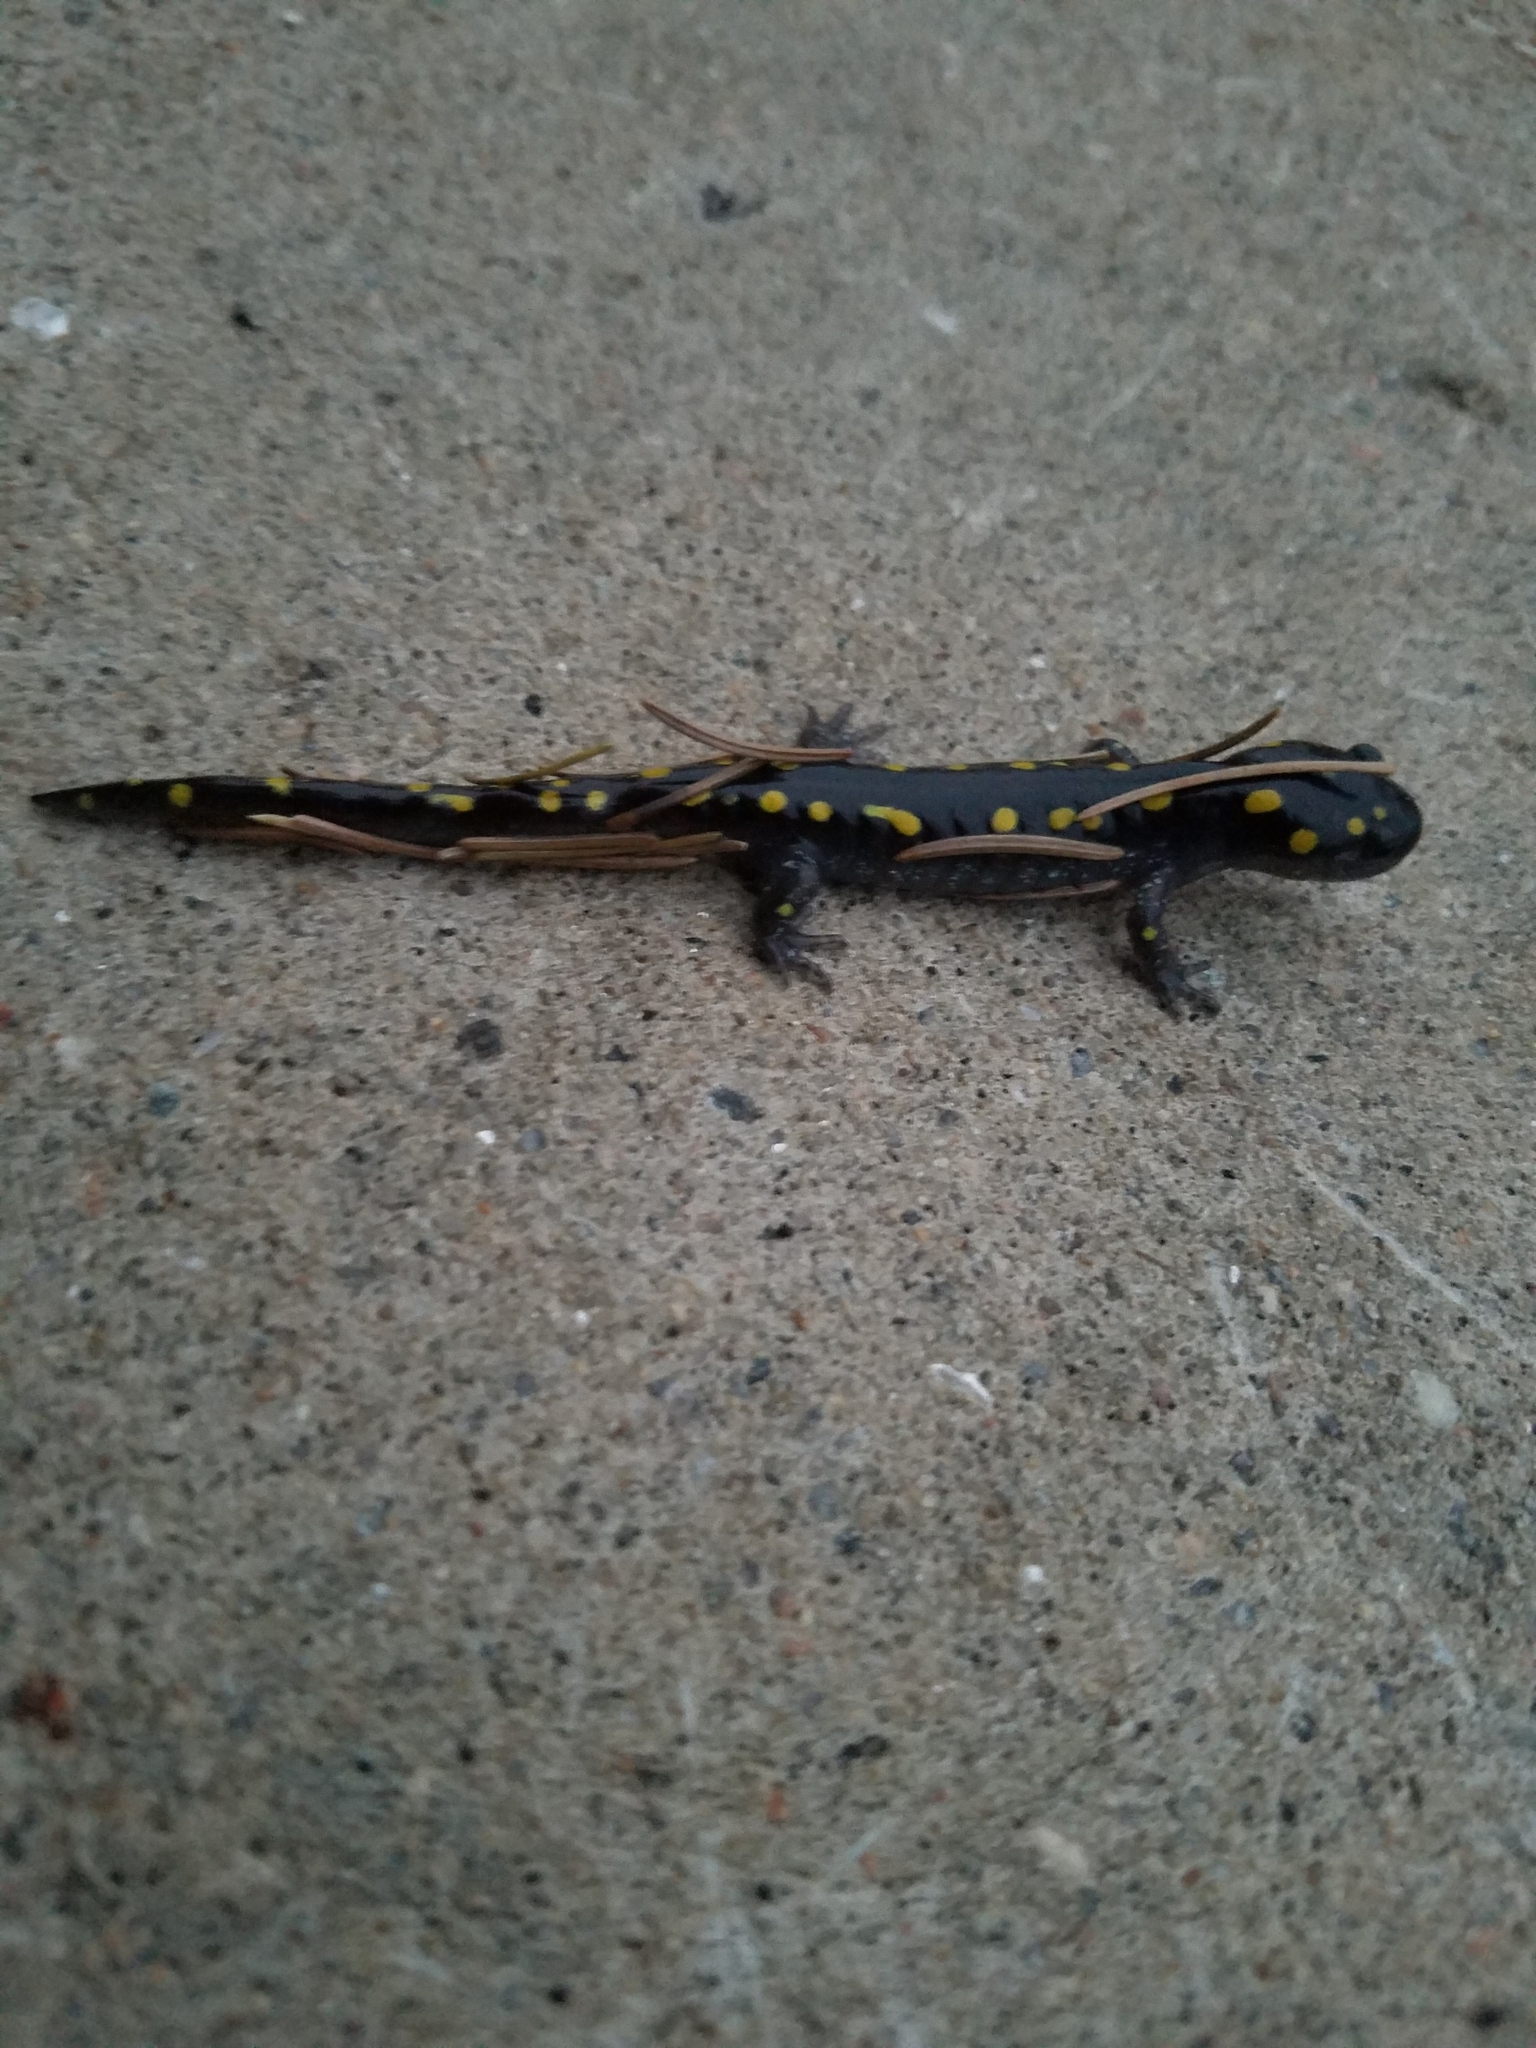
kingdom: Animalia
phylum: Chordata
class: Amphibia
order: Caudata
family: Ambystomatidae
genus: Ambystoma
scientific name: Ambystoma maculatum
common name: Spotted salamander
